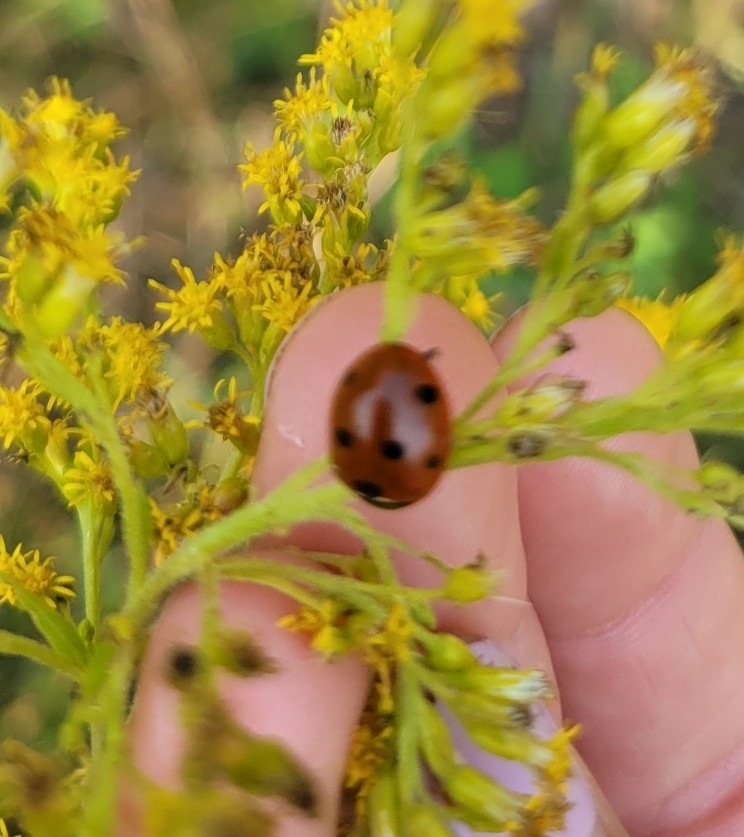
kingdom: Animalia
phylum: Arthropoda
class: Insecta
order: Coleoptera
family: Coccinellidae
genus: Coccinella
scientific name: Coccinella septempunctata
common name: Sevenspotted lady beetle
